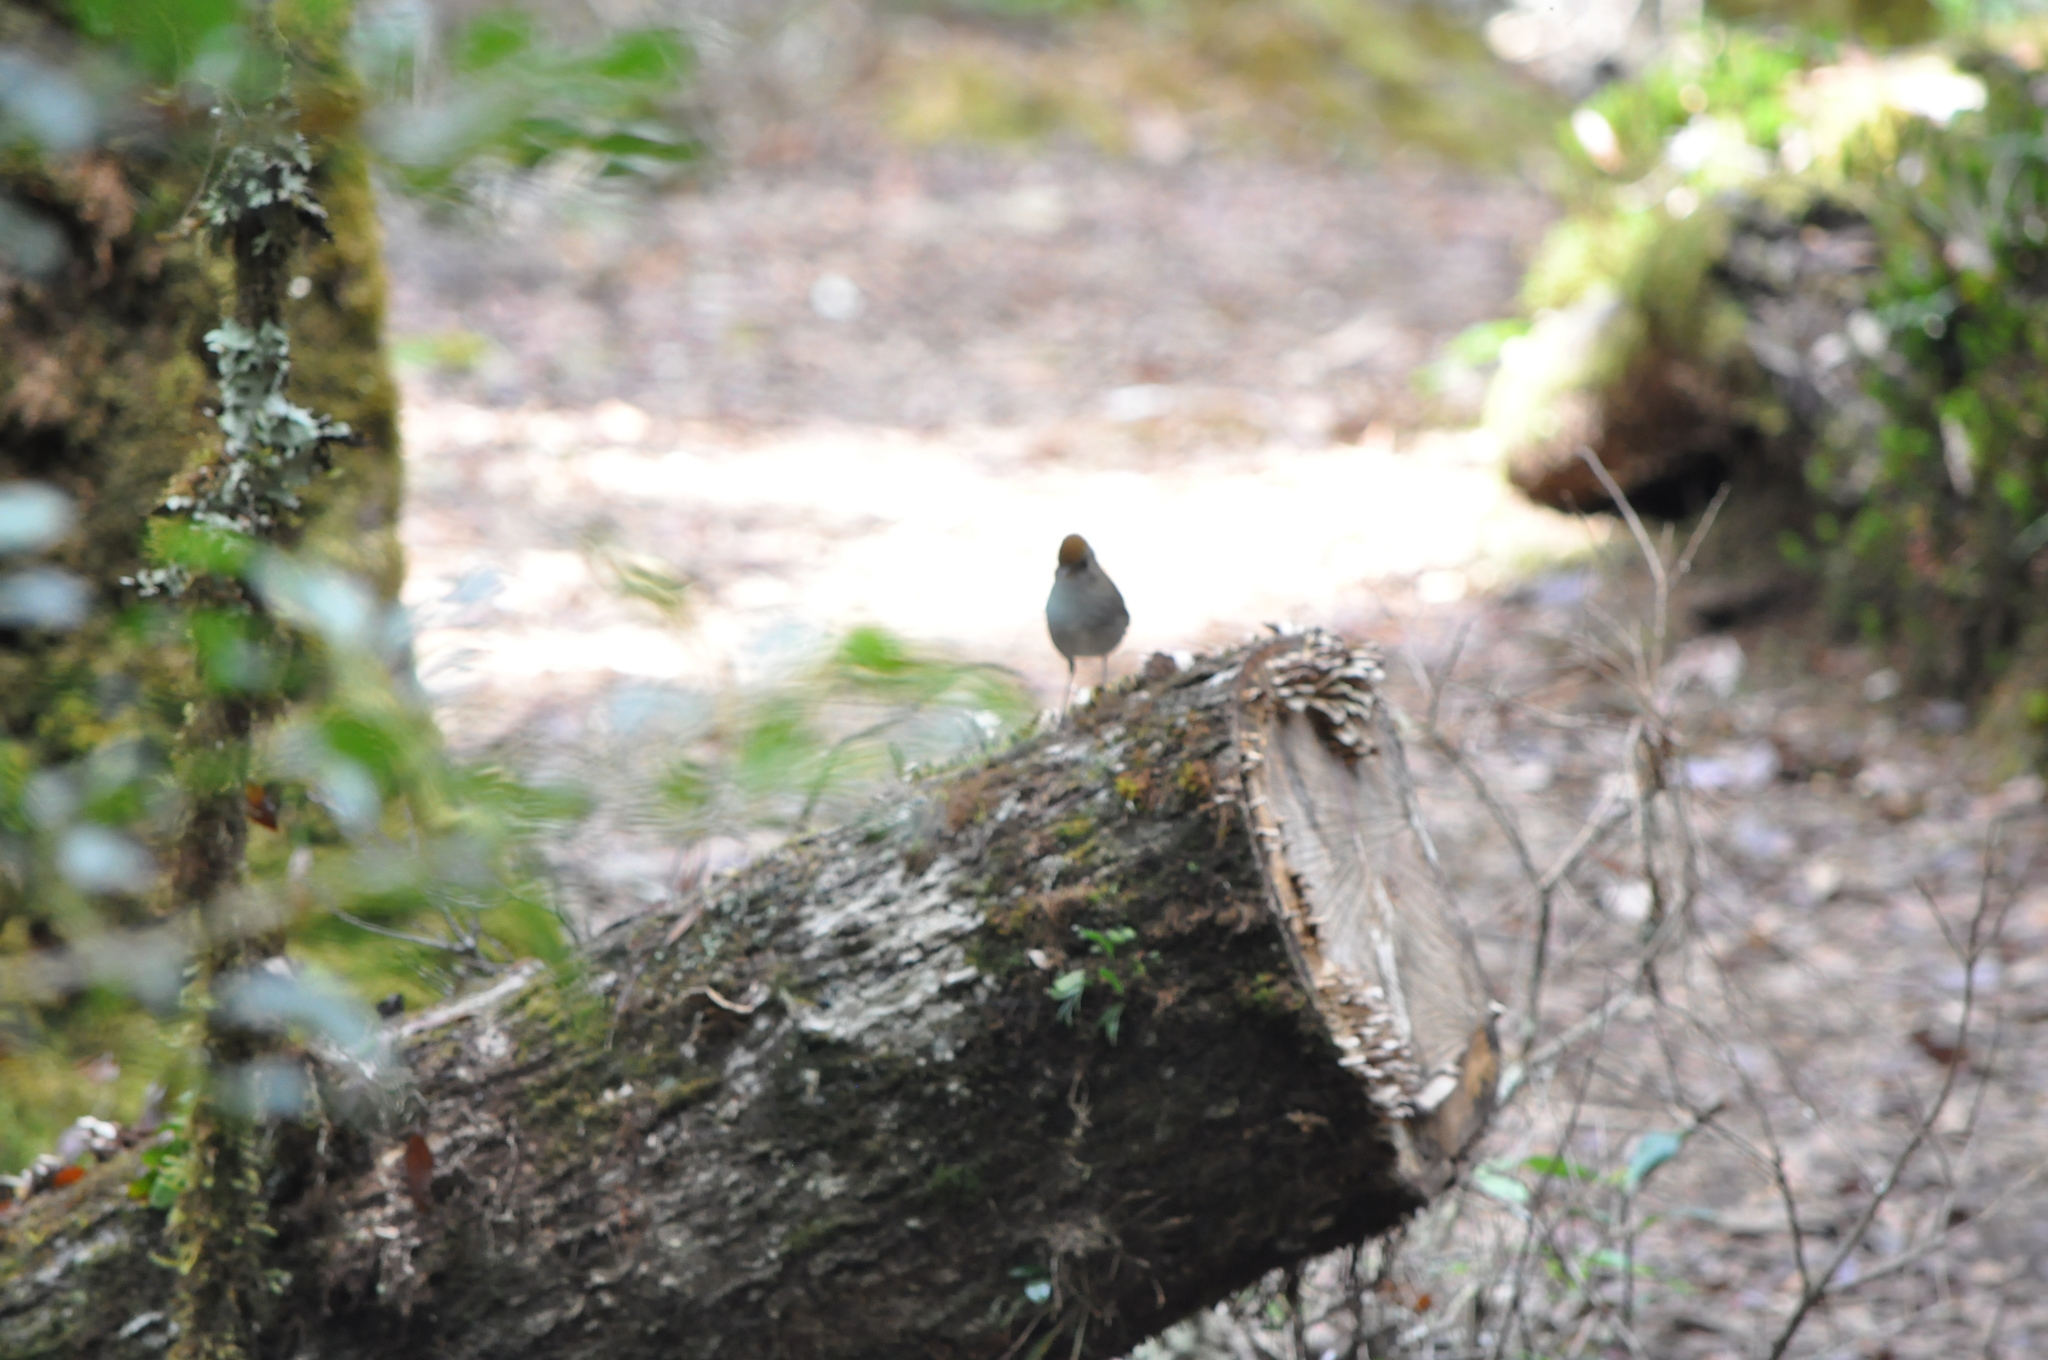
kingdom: Animalia
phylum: Chordata
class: Aves
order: Passeriformes
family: Turdidae
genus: Catharus
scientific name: Catharus frantzii
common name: Ruddy-capped nightingale-thrush
